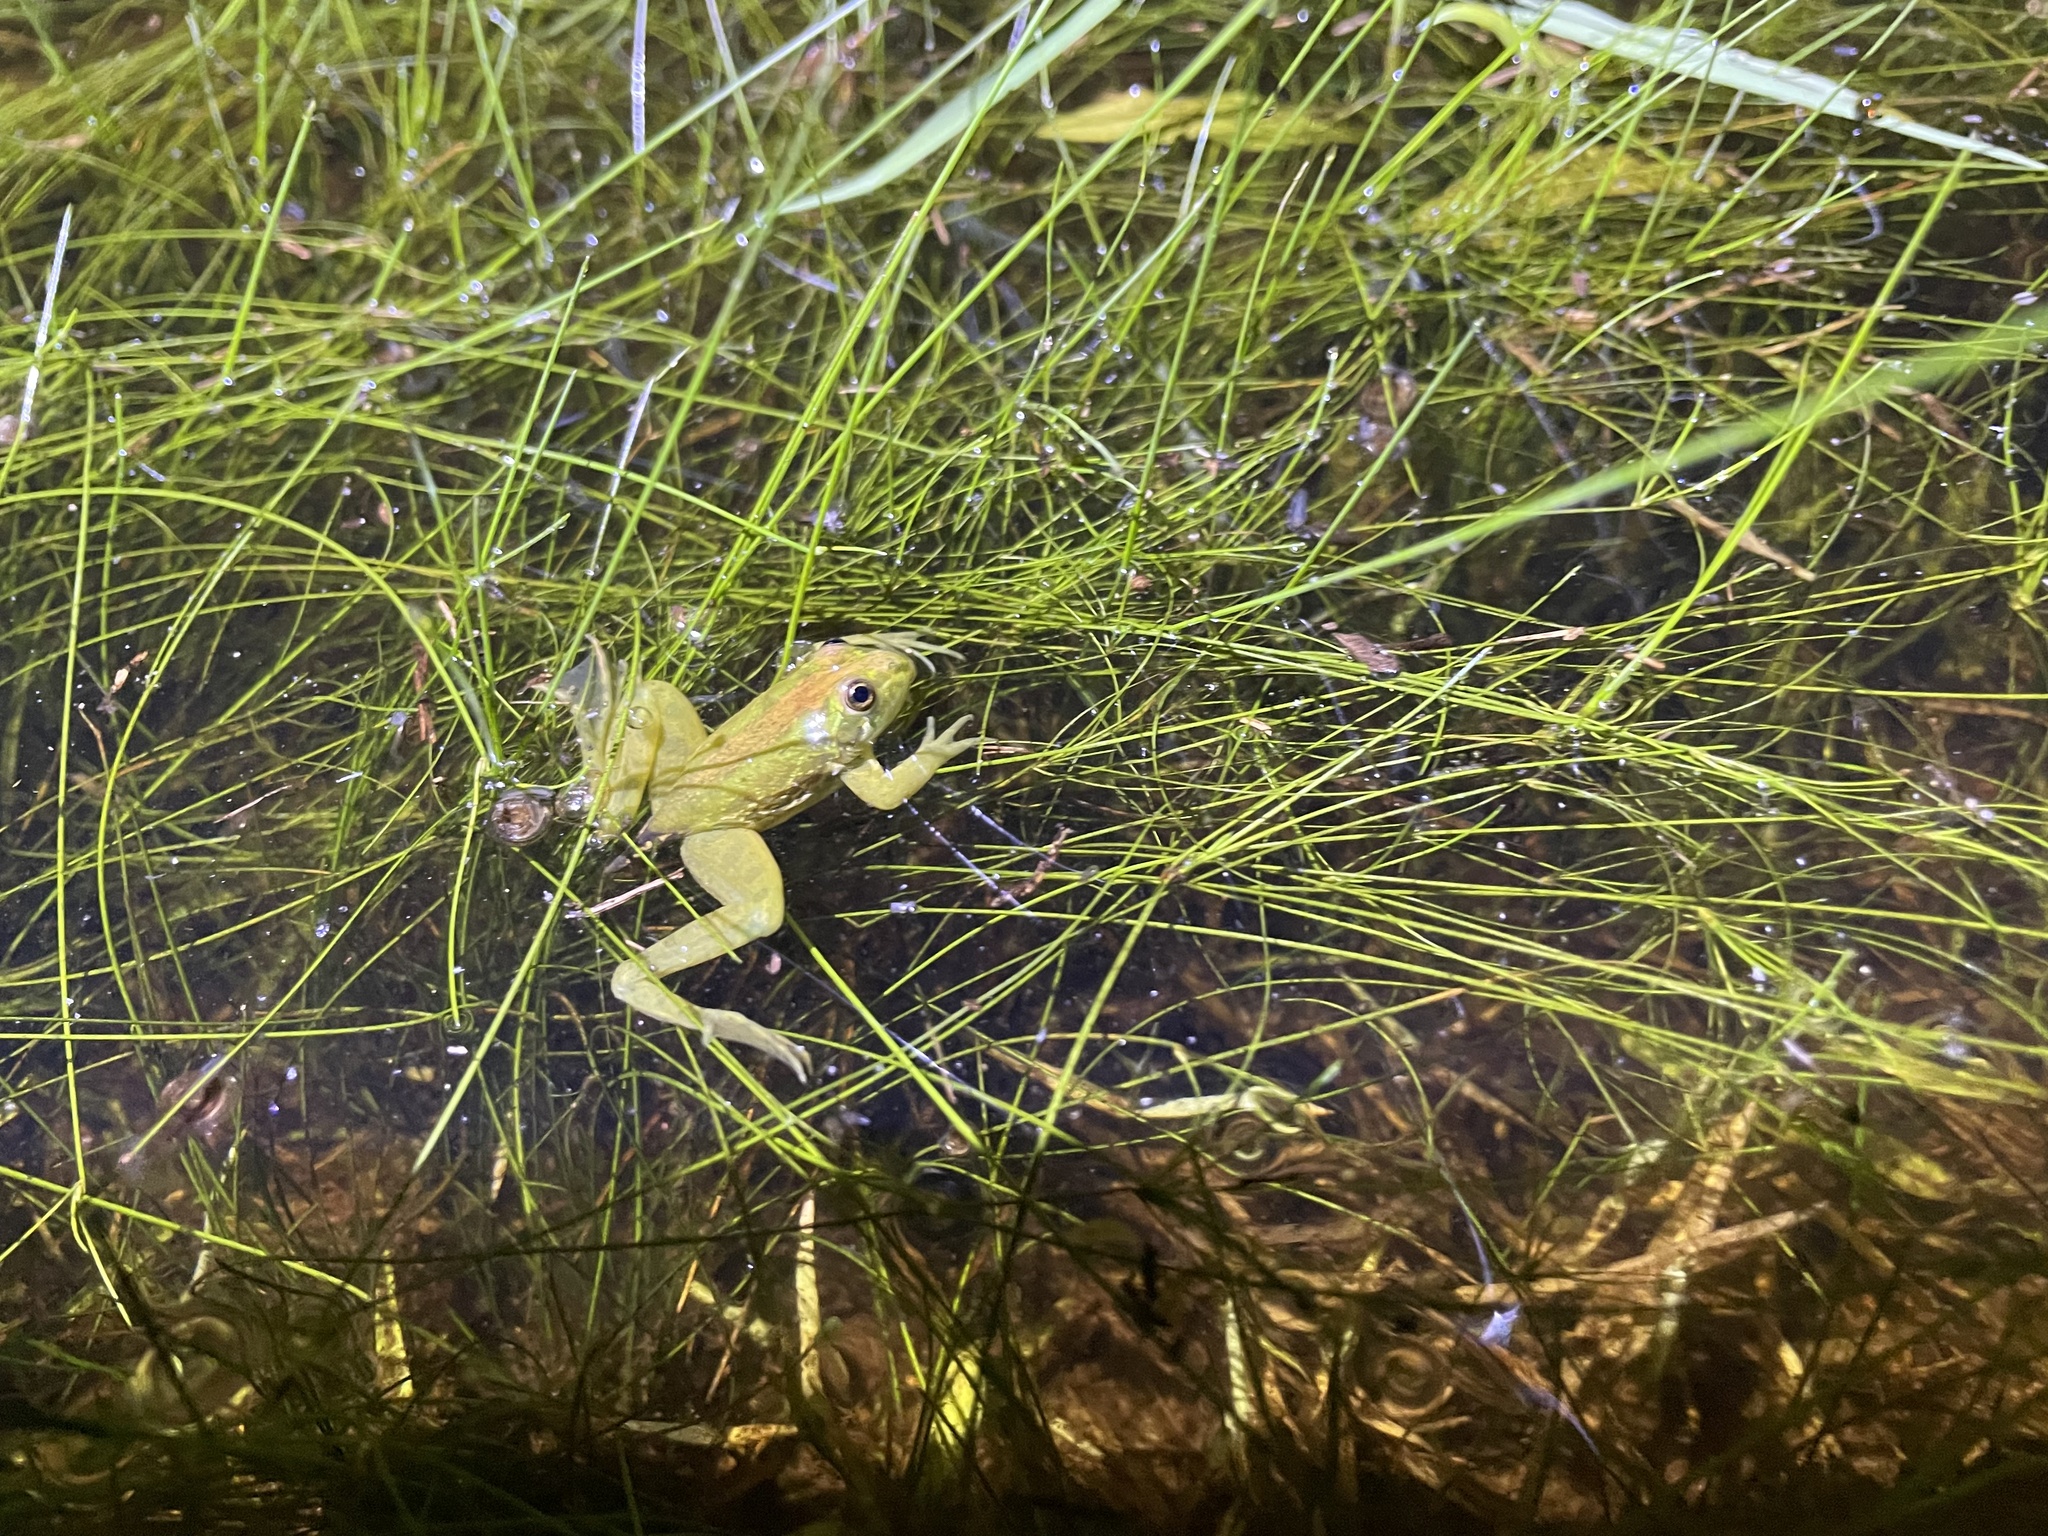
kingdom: Animalia
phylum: Chordata
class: Amphibia
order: Anura
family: Hylidae
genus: Pseudis
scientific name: Pseudis minuta
